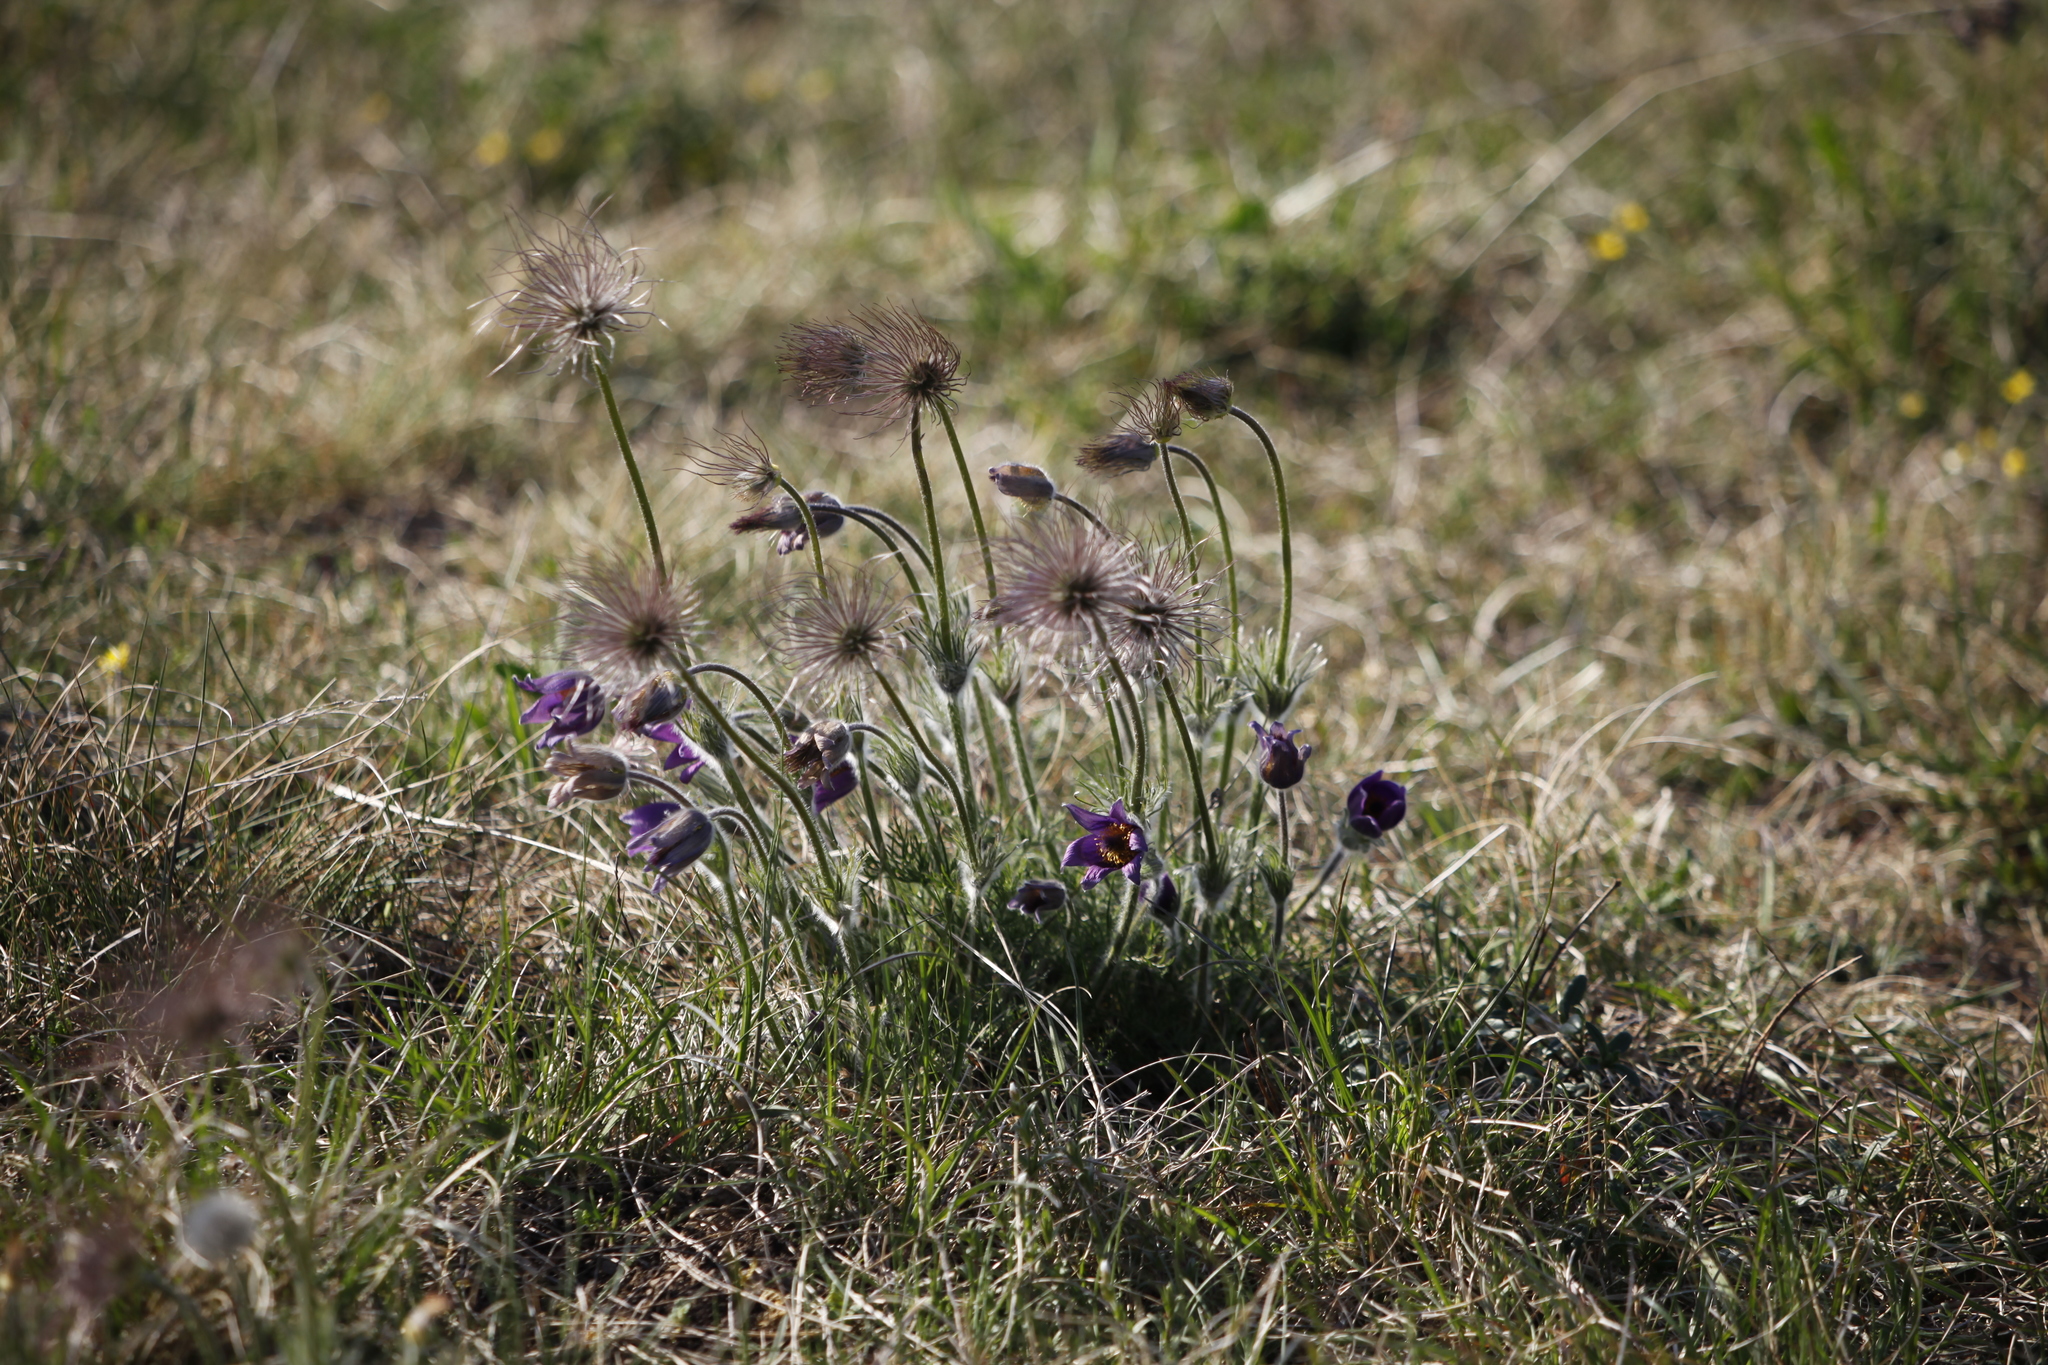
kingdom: Plantae
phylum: Tracheophyta
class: Magnoliopsida
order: Ranunculales
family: Ranunculaceae
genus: Pulsatilla
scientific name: Pulsatilla vulgaris
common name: Pasqueflower
